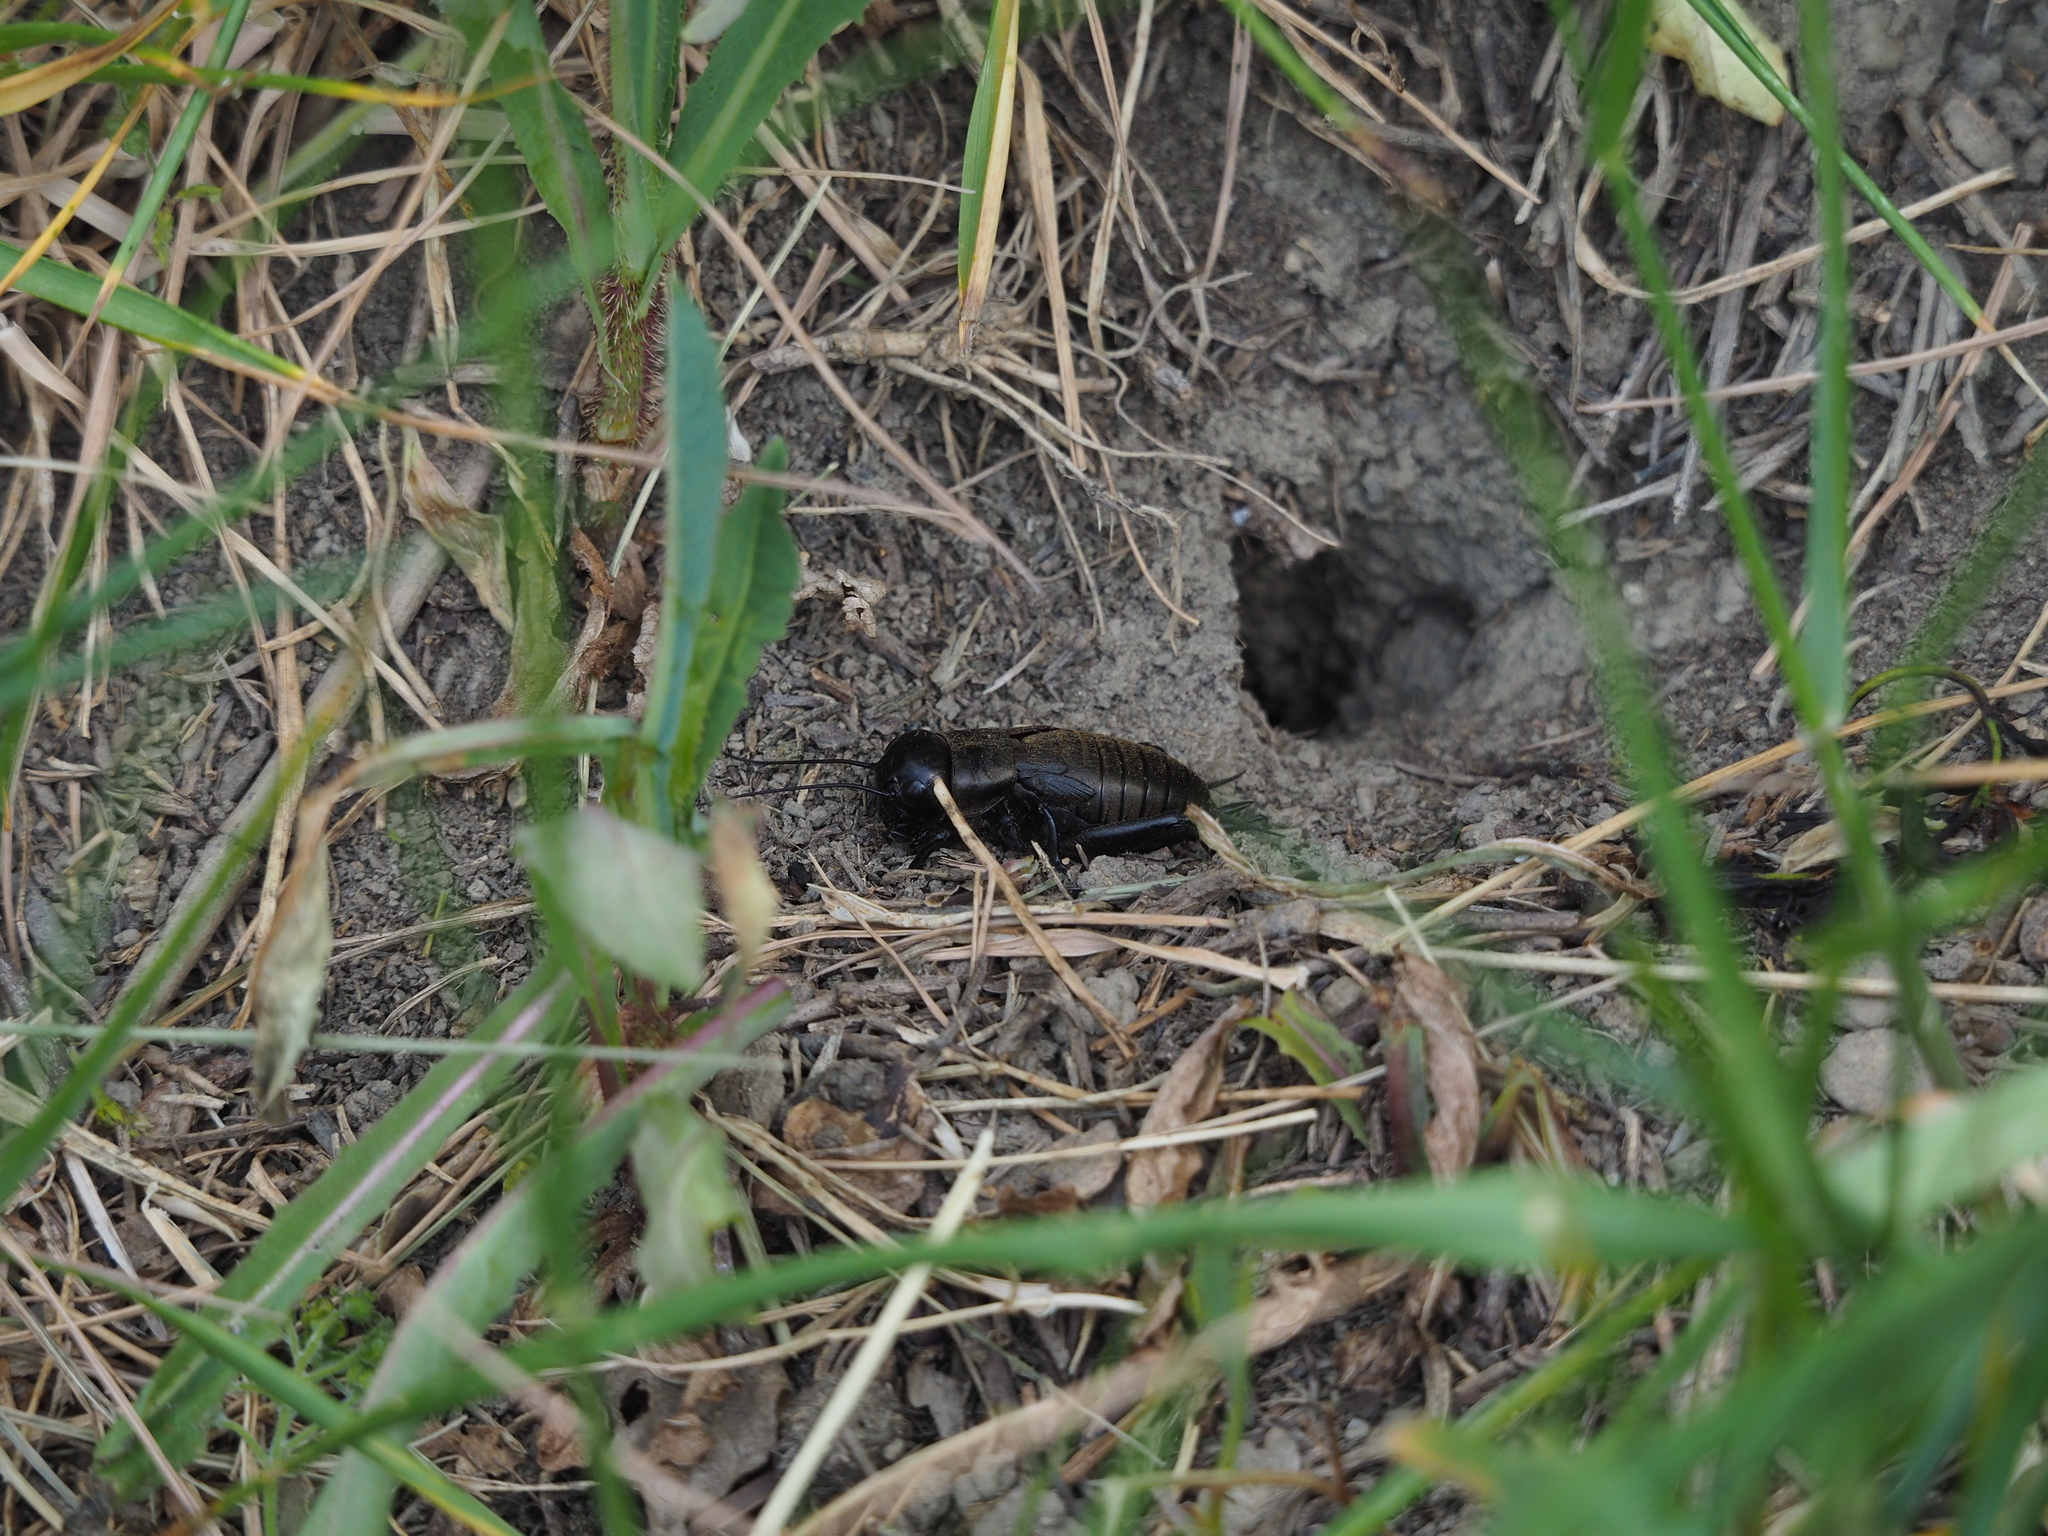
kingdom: Animalia
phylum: Arthropoda
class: Insecta
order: Orthoptera
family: Gryllidae
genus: Gryllus
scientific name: Gryllus campestris
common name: Field cricket
